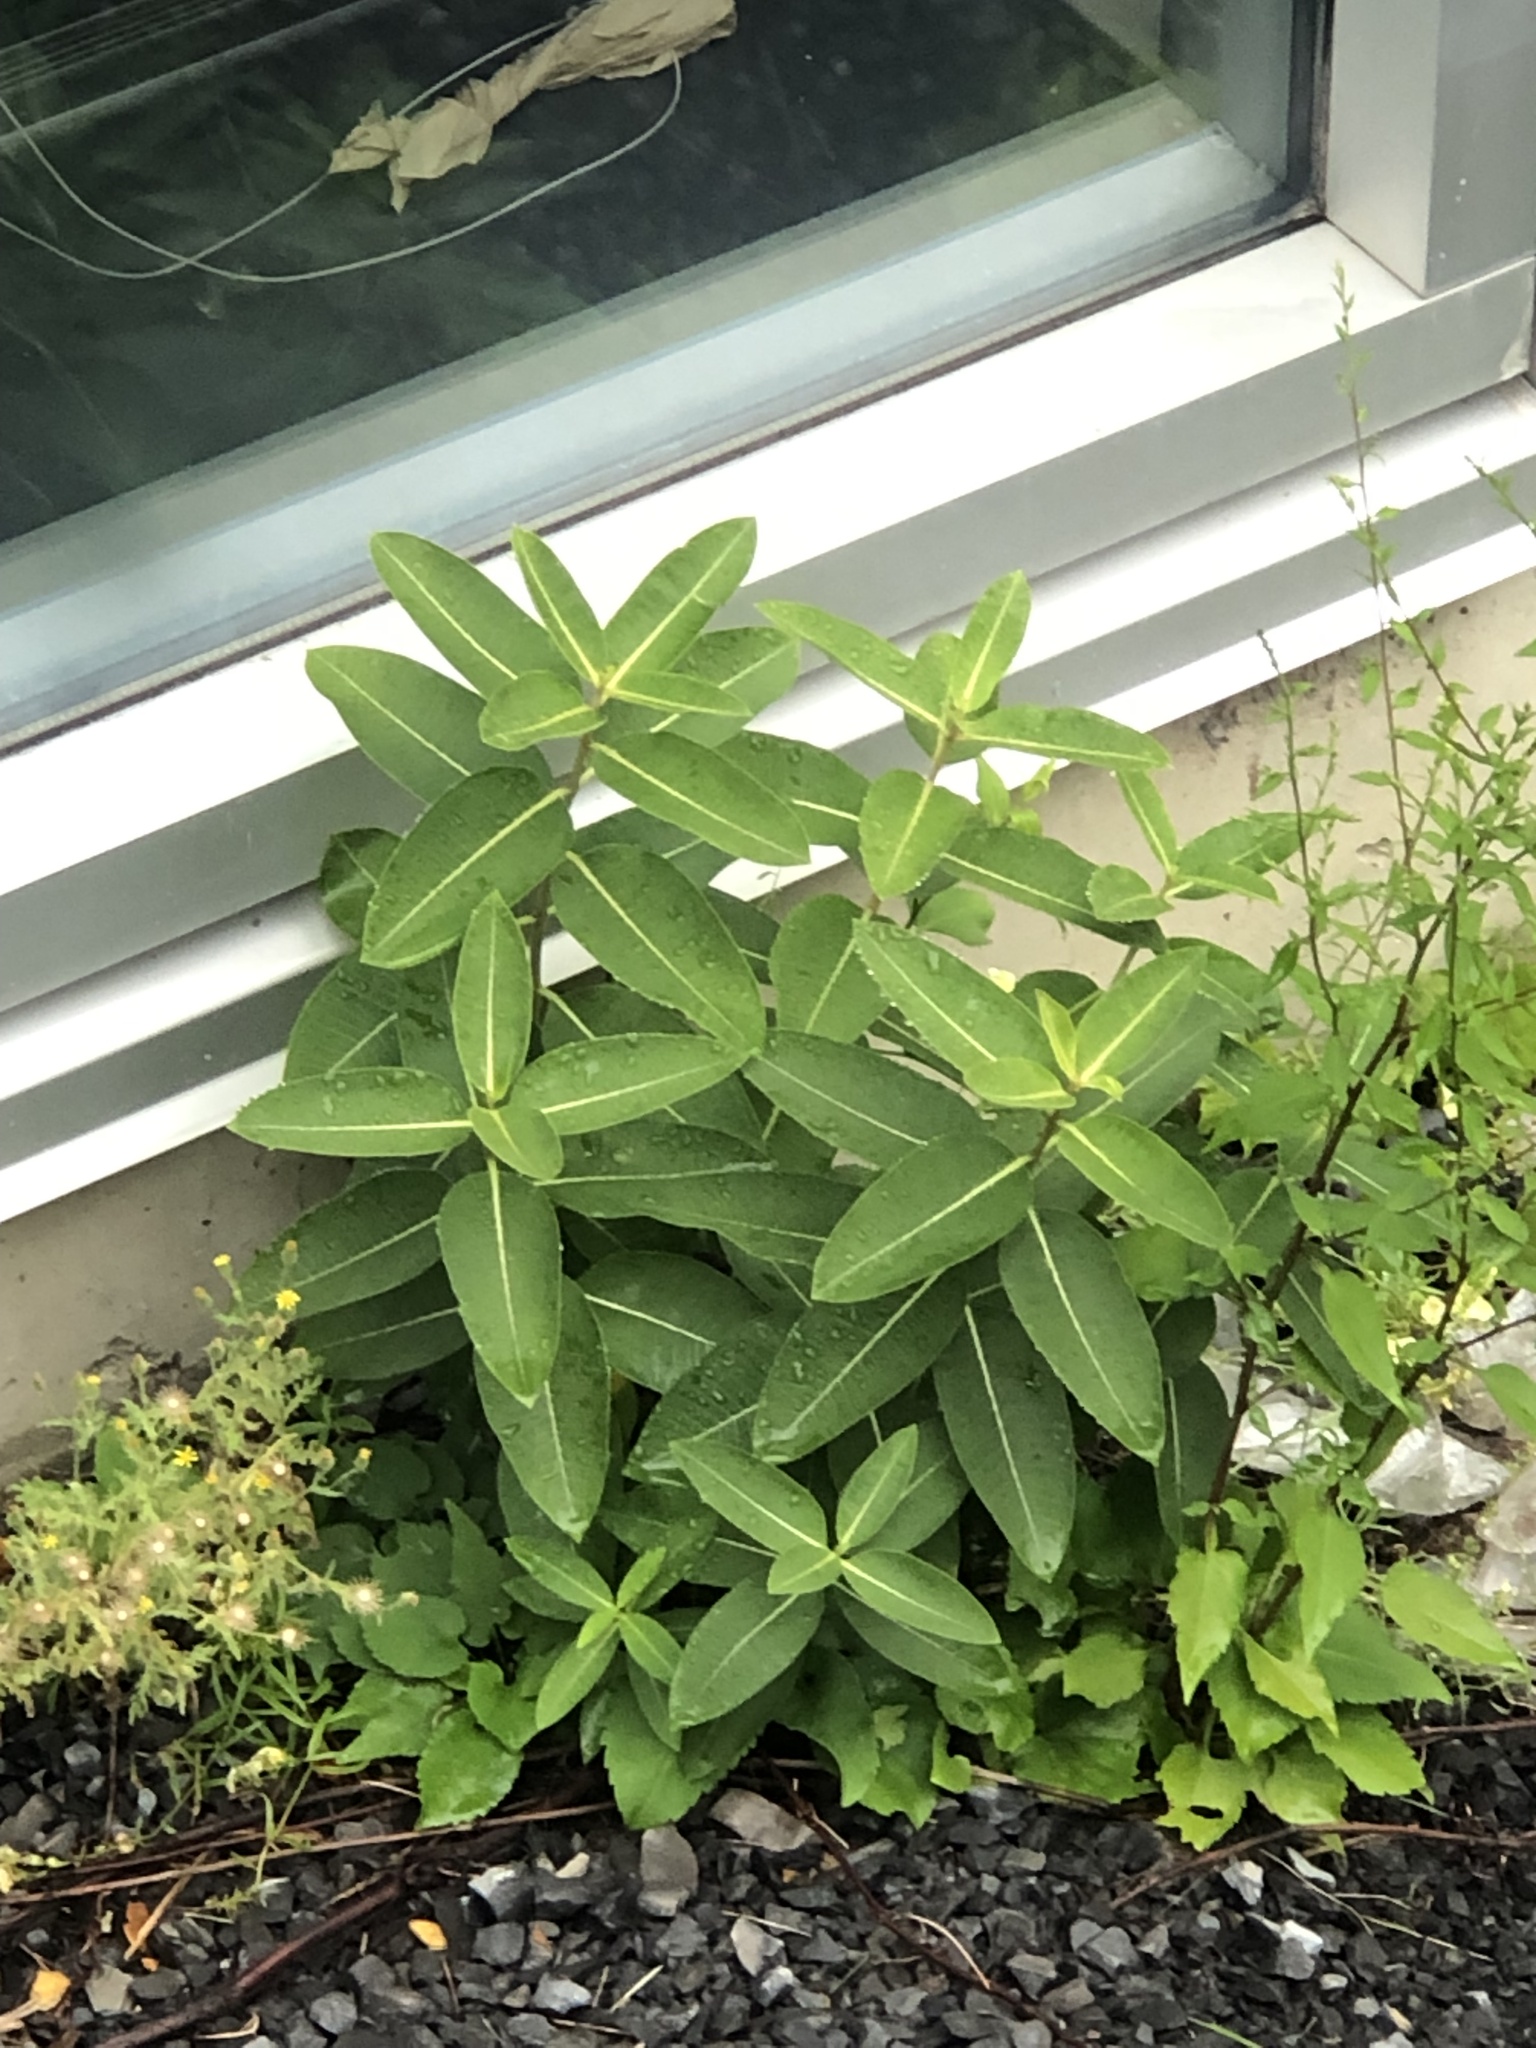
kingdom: Plantae
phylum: Tracheophyta
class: Magnoliopsida
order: Gentianales
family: Apocynaceae
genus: Asclepias
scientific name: Asclepias syriaca
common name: Common milkweed
